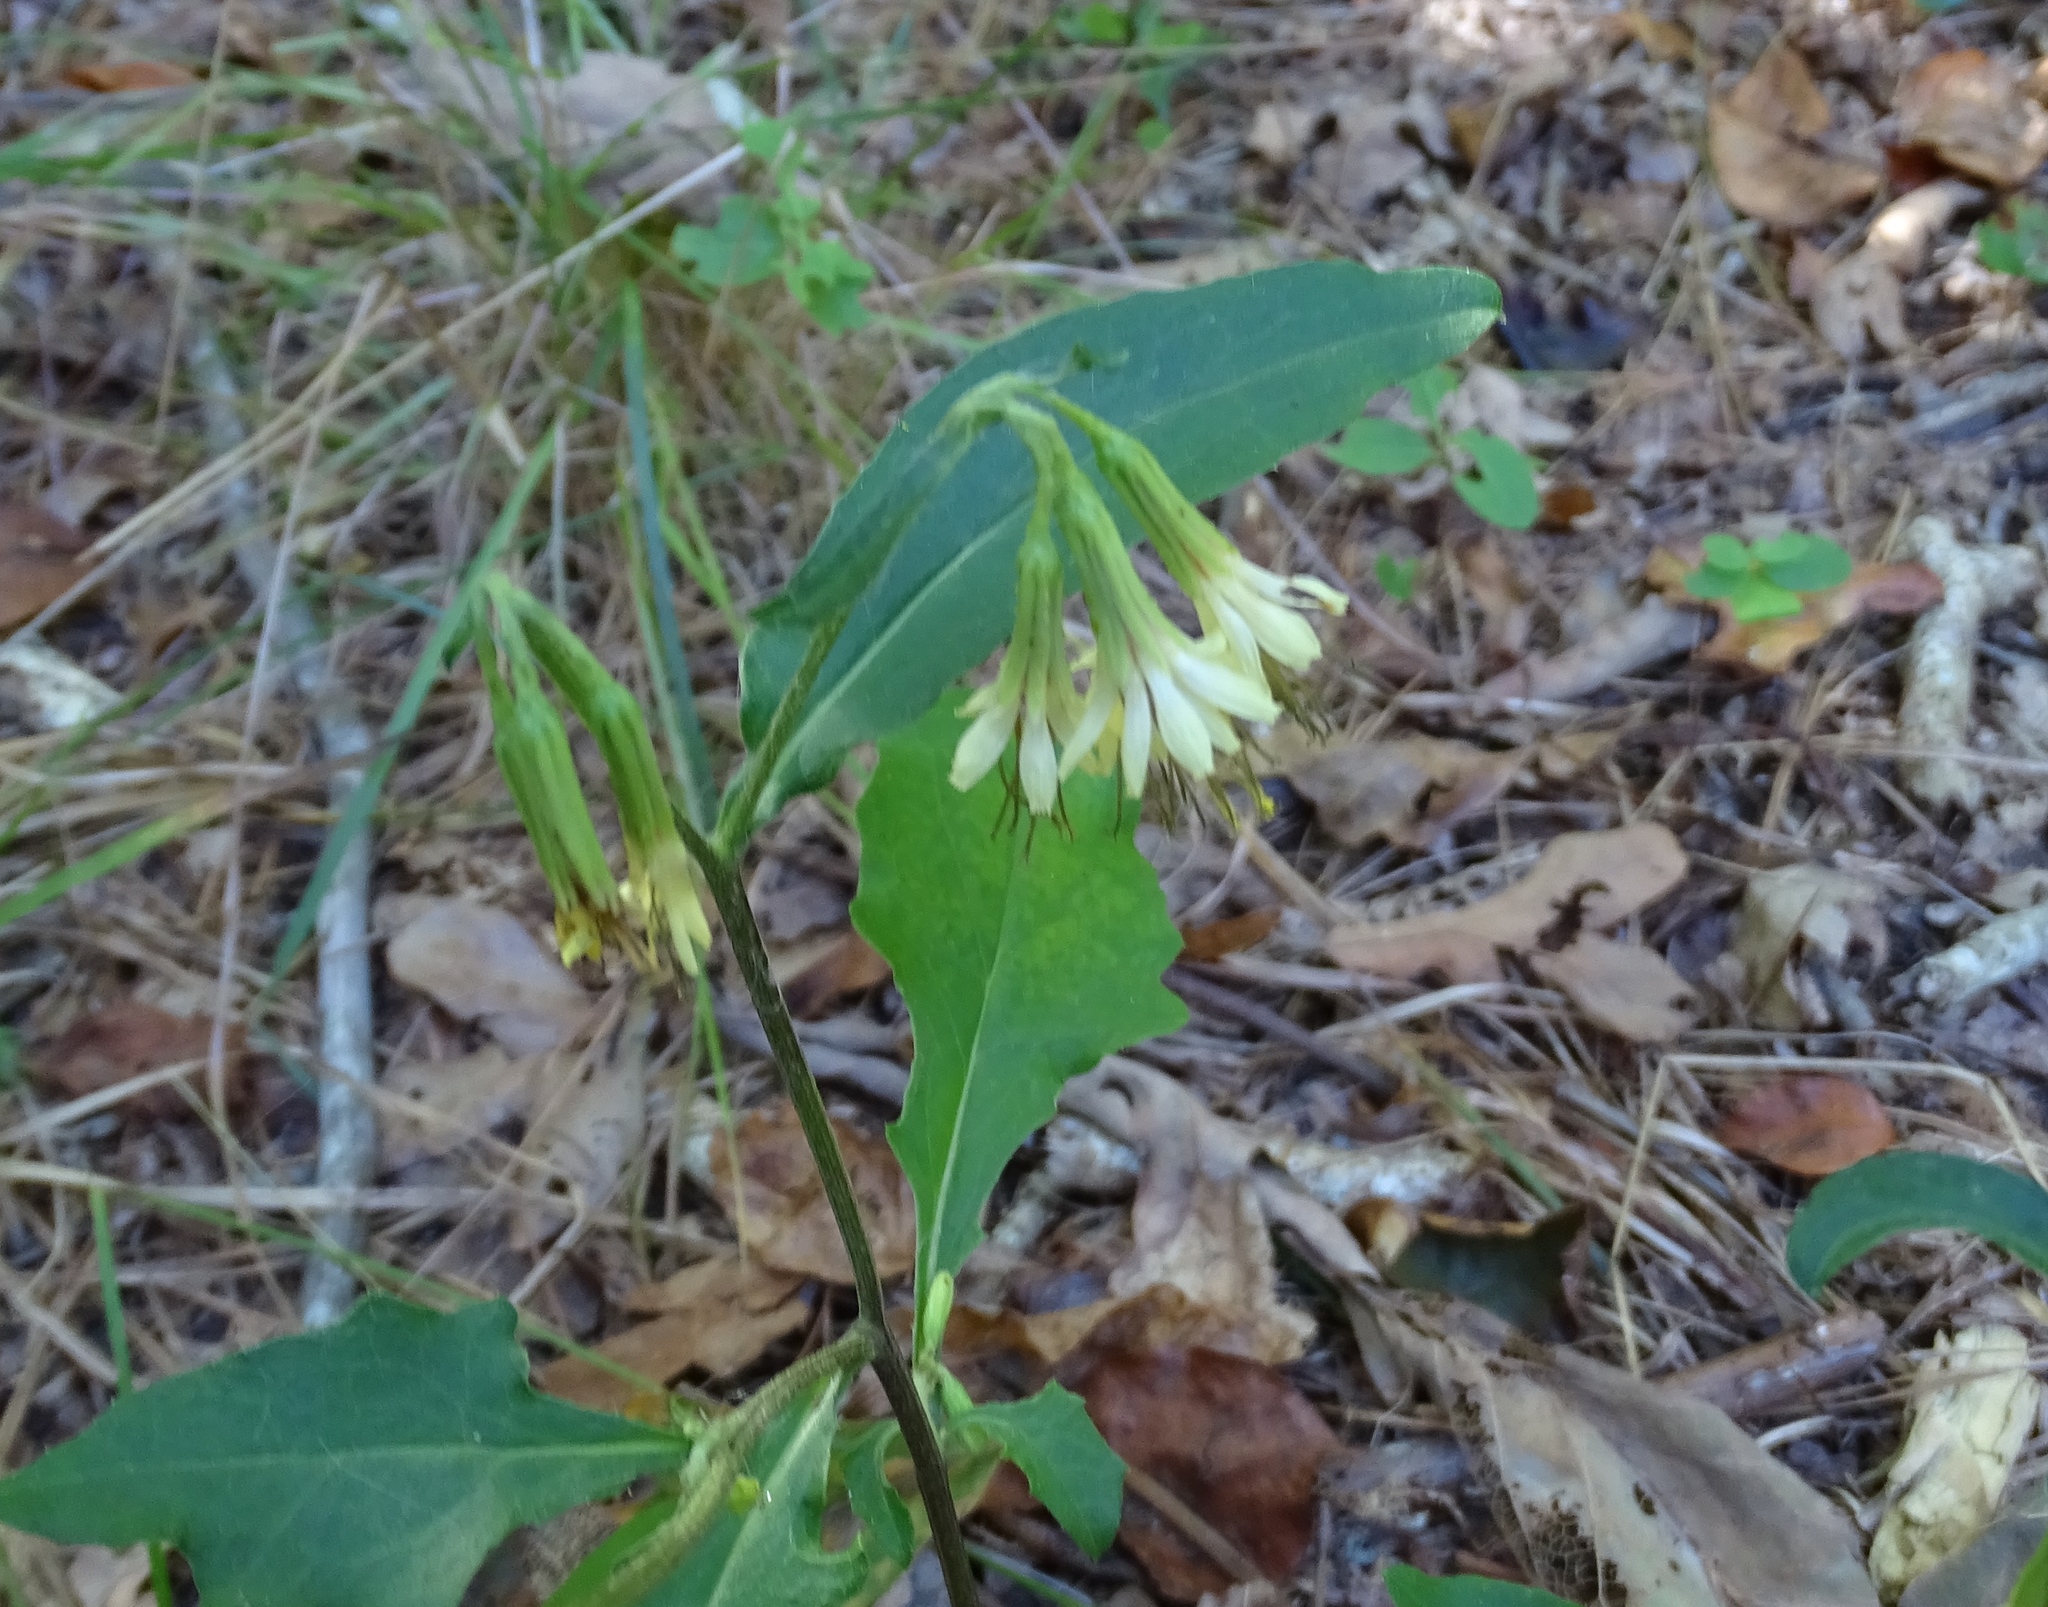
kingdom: Plantae
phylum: Tracheophyta
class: Magnoliopsida
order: Asterales
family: Asteraceae
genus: Nabalus
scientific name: Nabalus serpentarius
